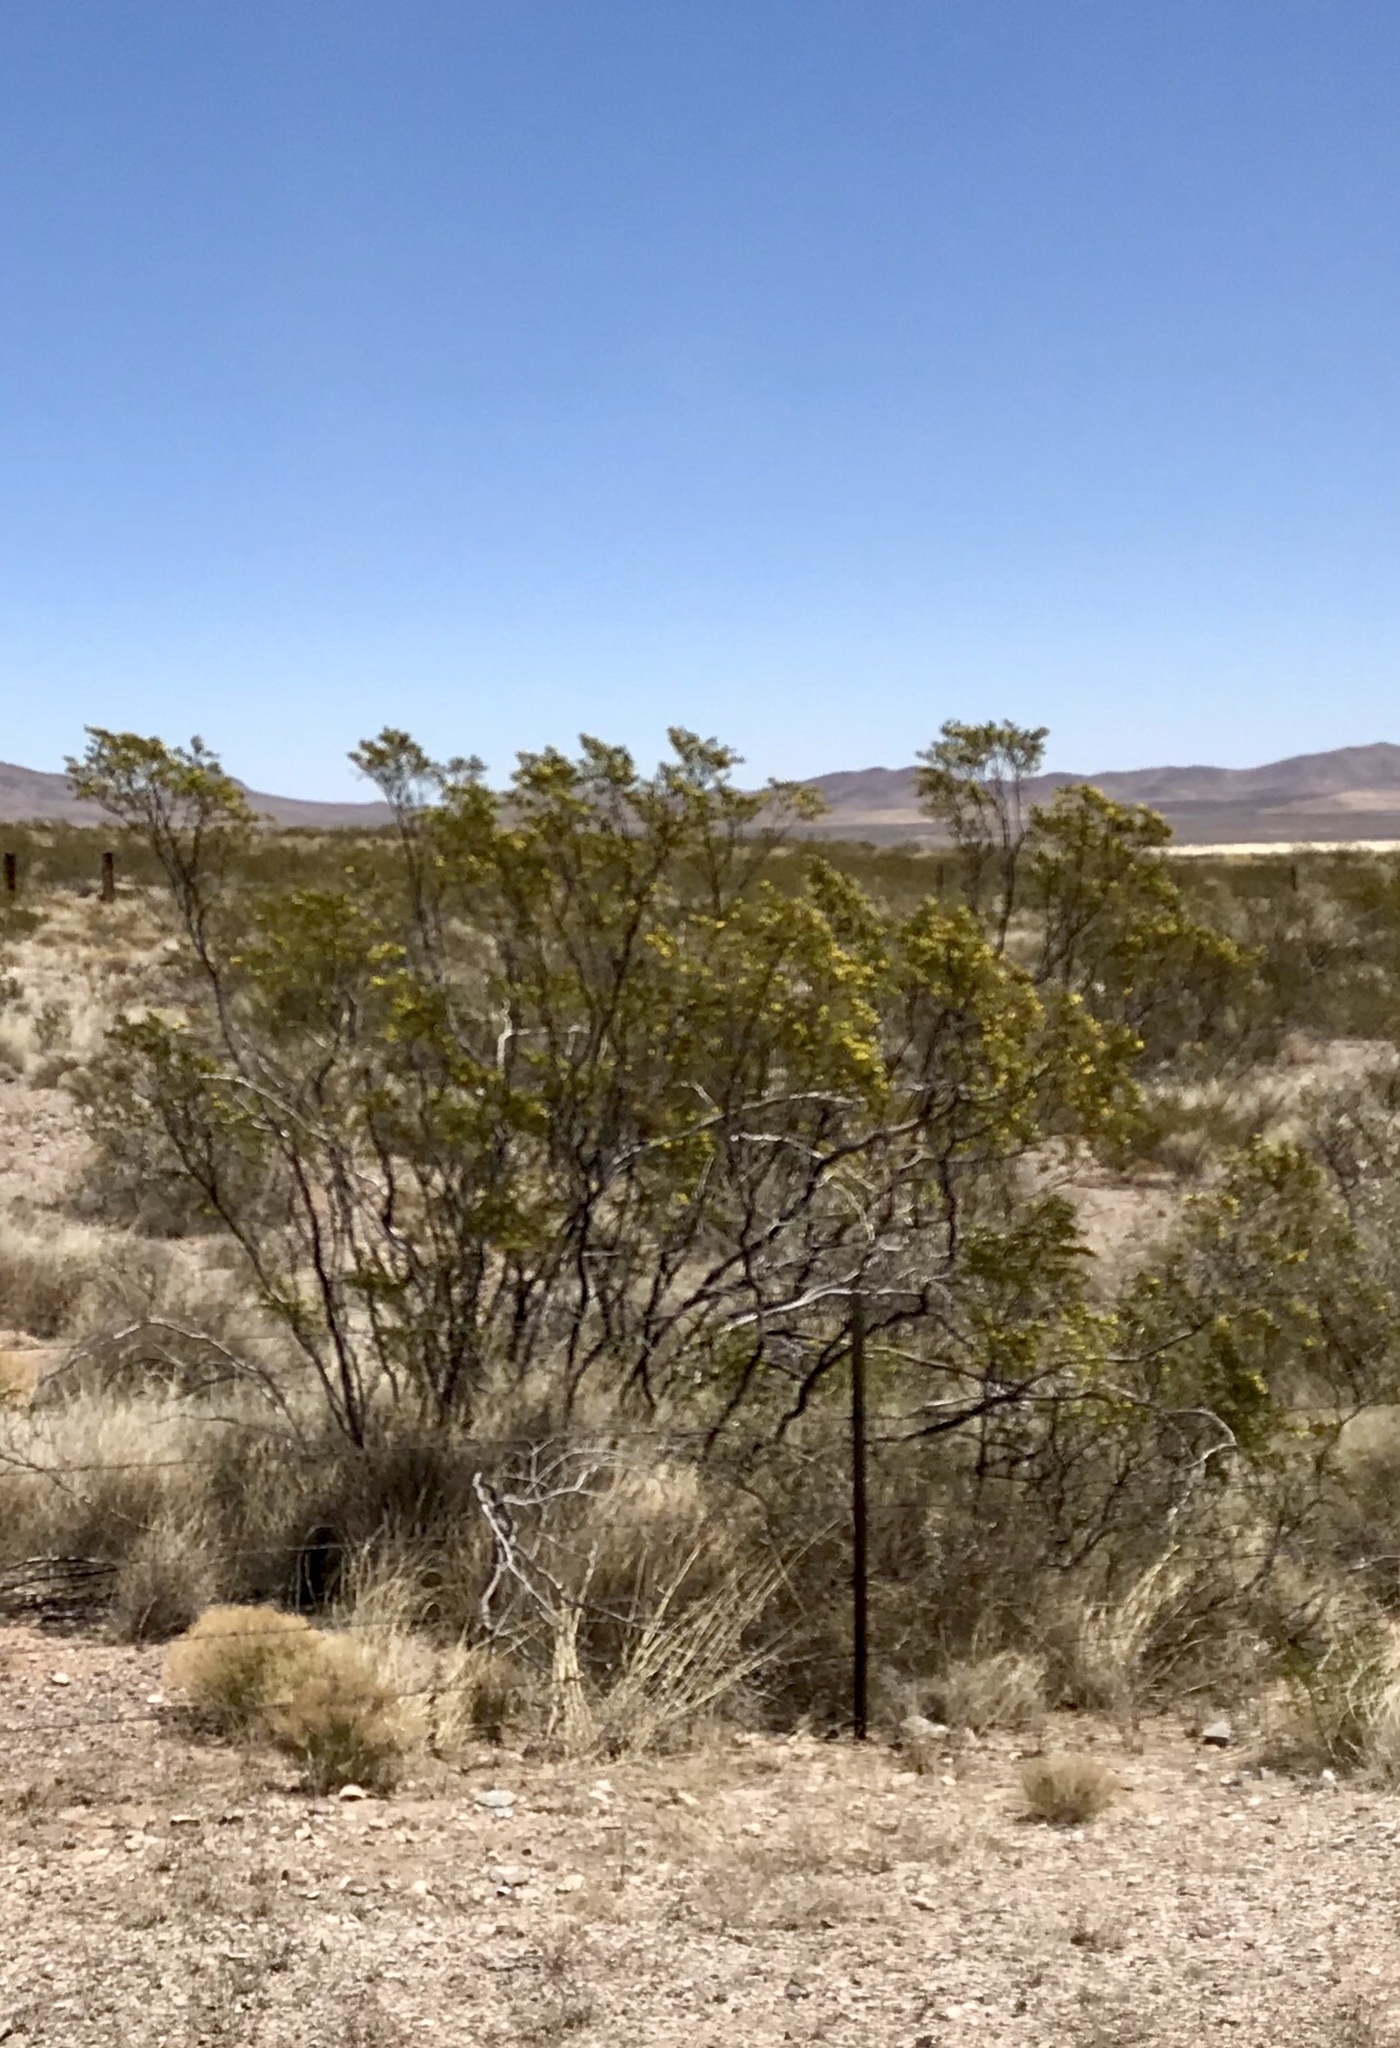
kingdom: Plantae
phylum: Tracheophyta
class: Magnoliopsida
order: Zygophyllales
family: Zygophyllaceae
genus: Larrea
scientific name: Larrea tridentata
